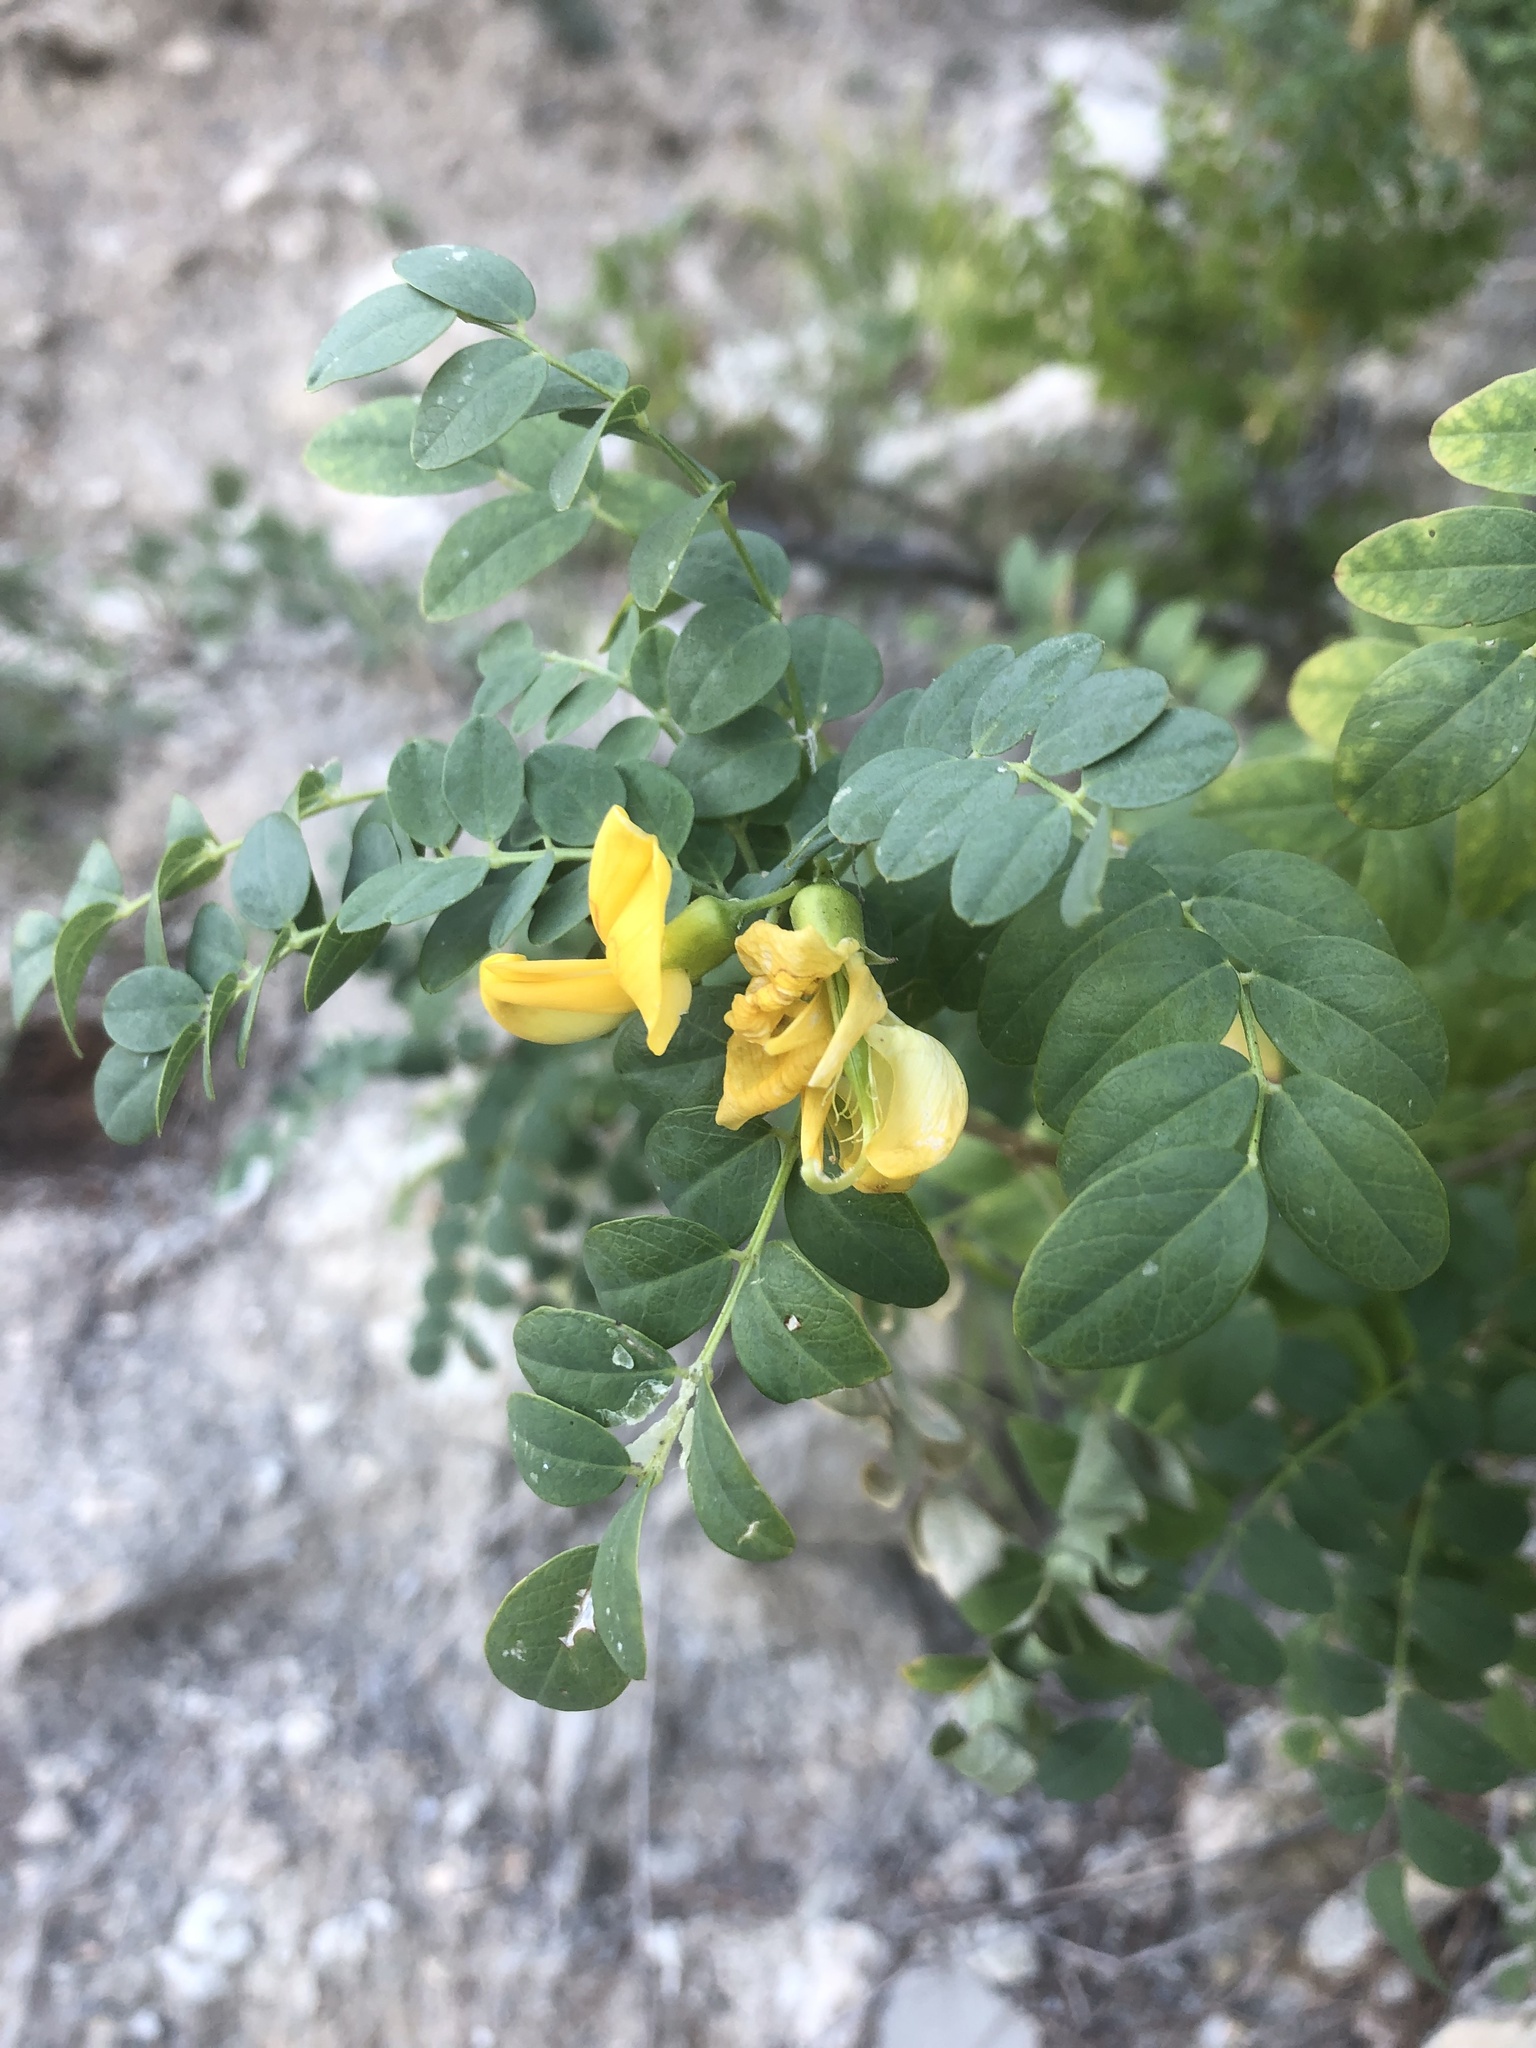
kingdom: Plantae
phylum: Tracheophyta
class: Magnoliopsida
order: Fabales
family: Fabaceae
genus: Colutea
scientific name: Colutea cilicica
